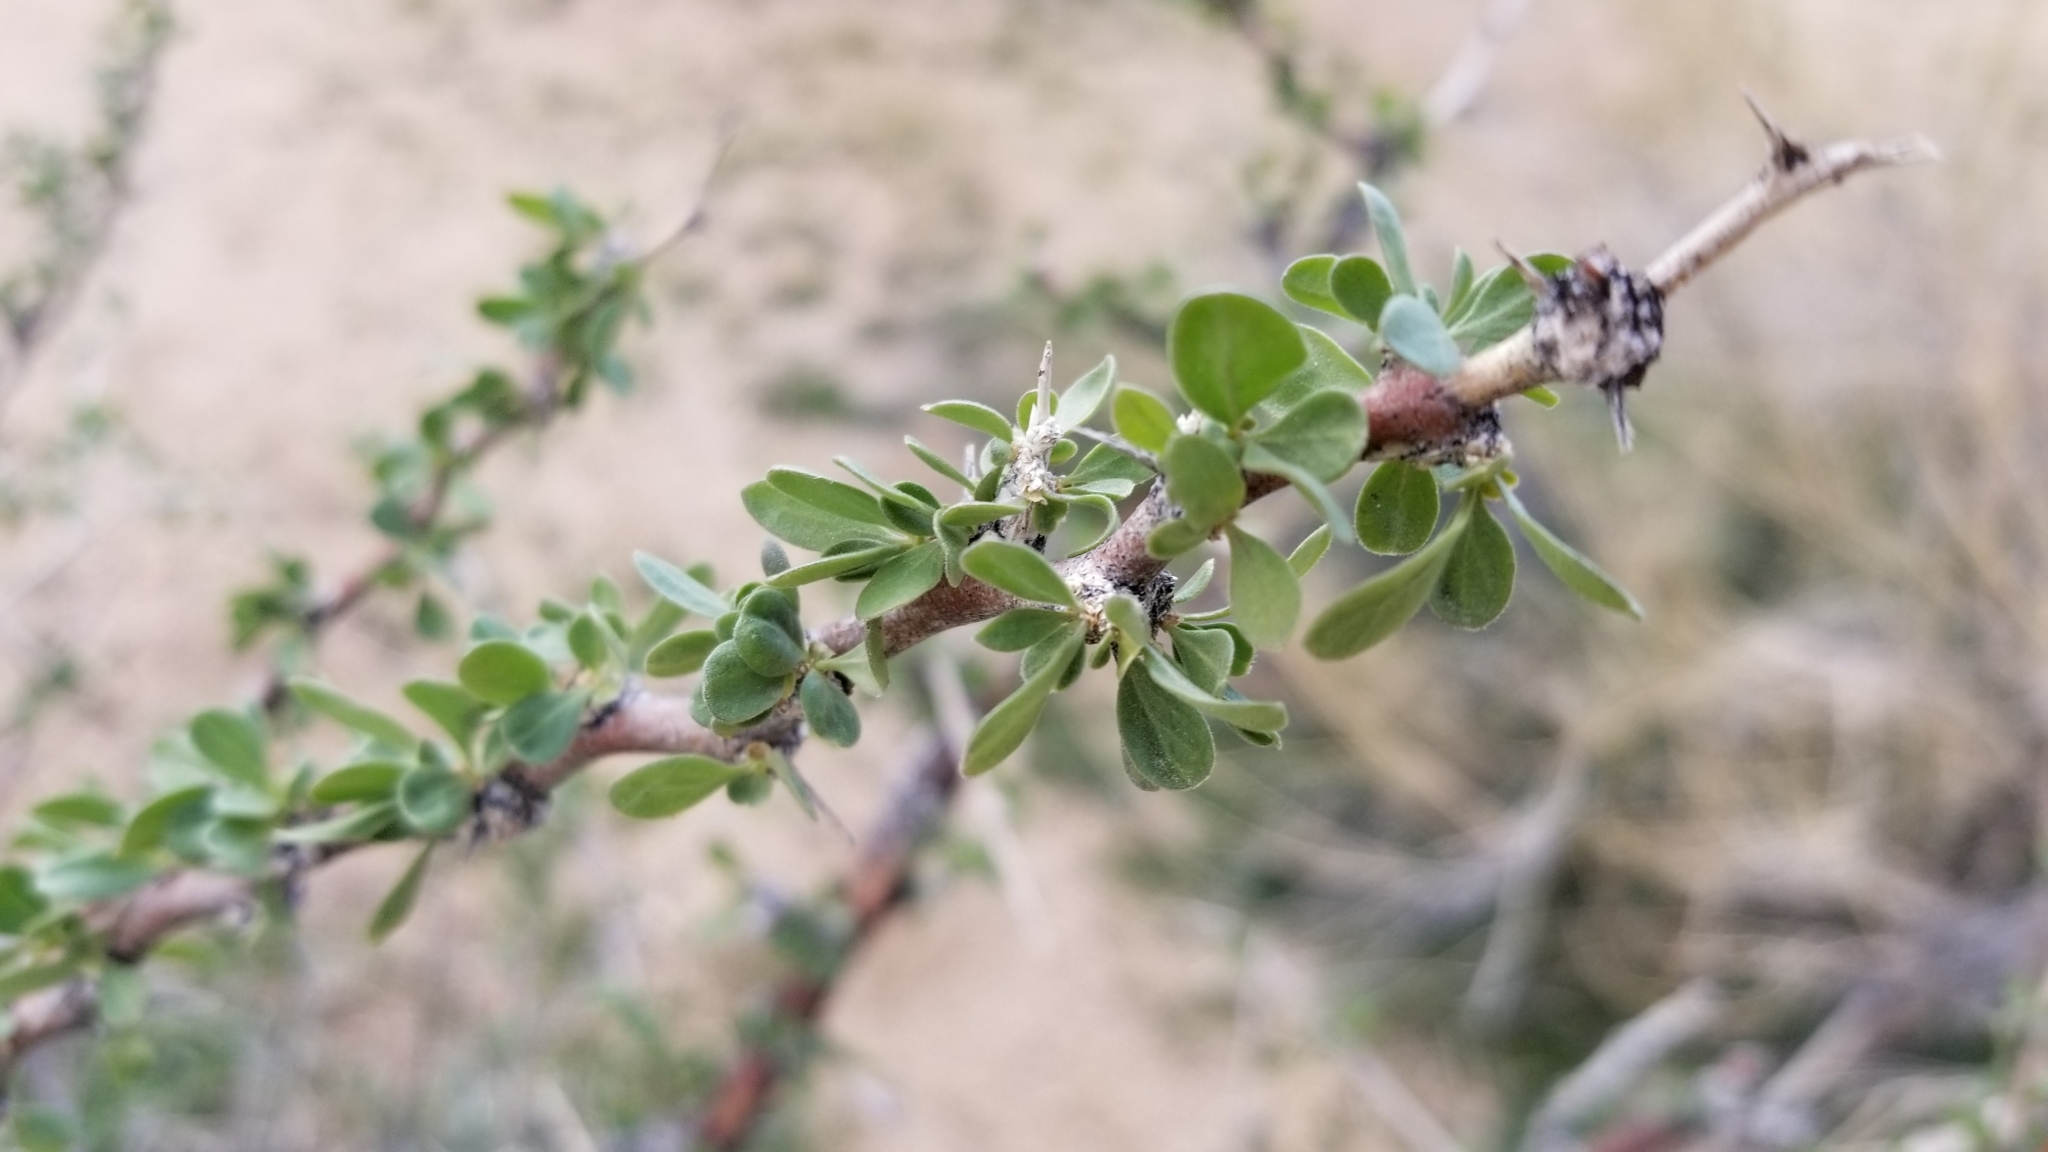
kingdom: Plantae
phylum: Tracheophyta
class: Magnoliopsida
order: Solanales
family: Solanaceae
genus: Lycium
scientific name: Lycium cooperi
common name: Peachthorn
